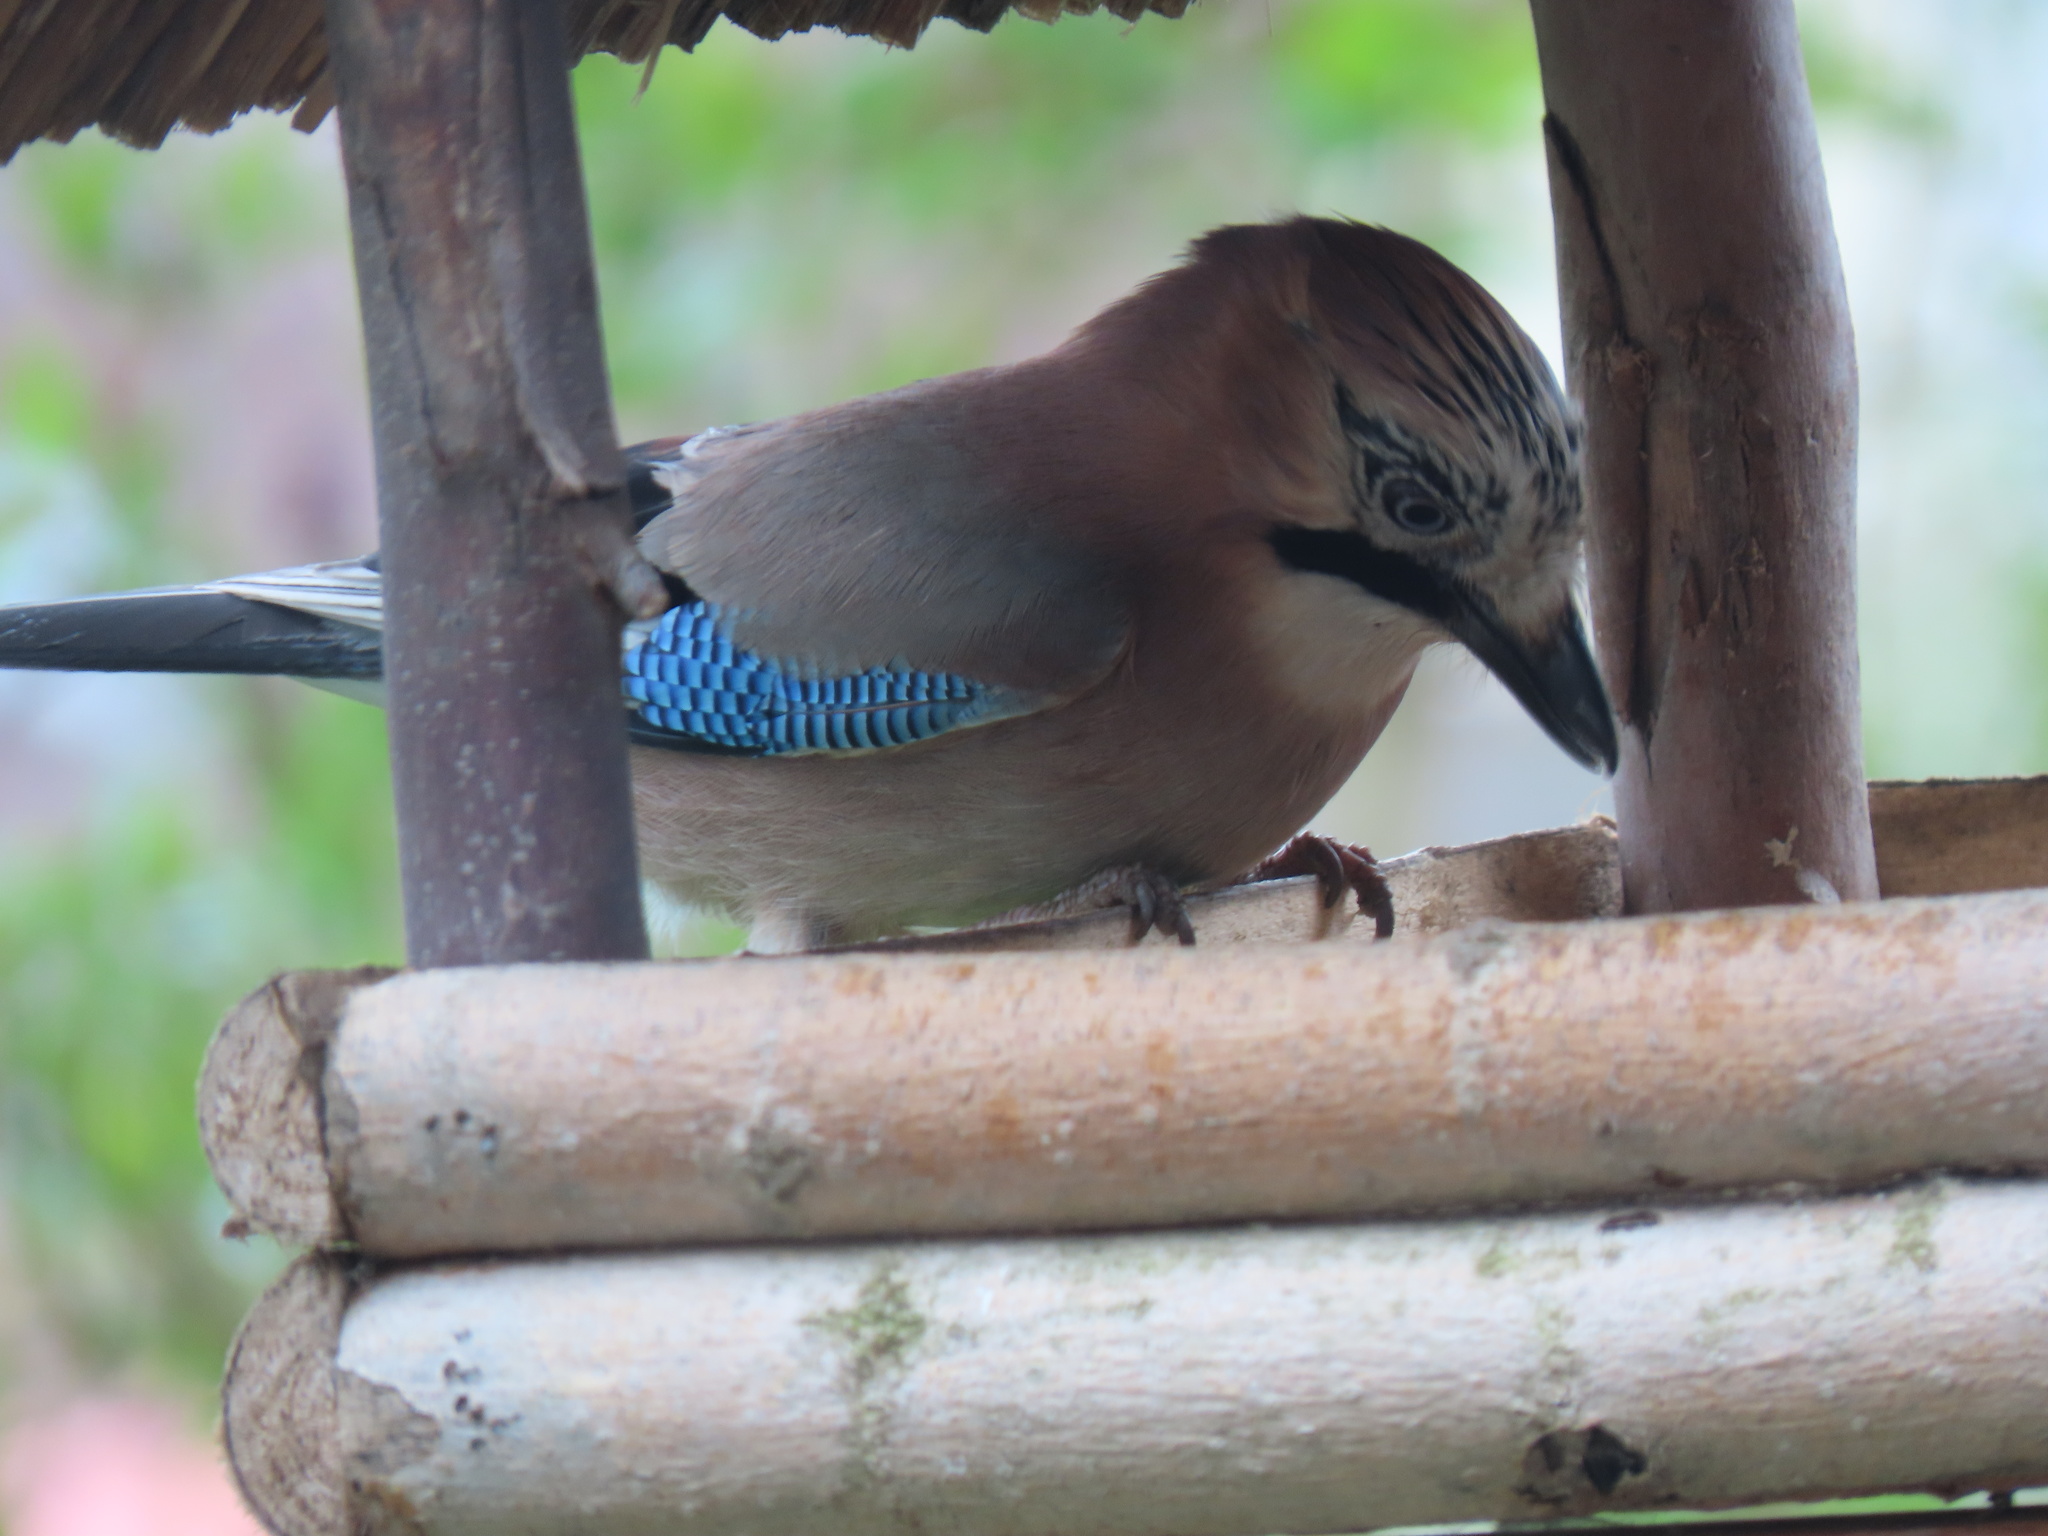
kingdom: Animalia
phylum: Chordata
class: Aves
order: Passeriformes
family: Corvidae
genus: Garrulus
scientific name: Garrulus glandarius
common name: Eurasian jay
